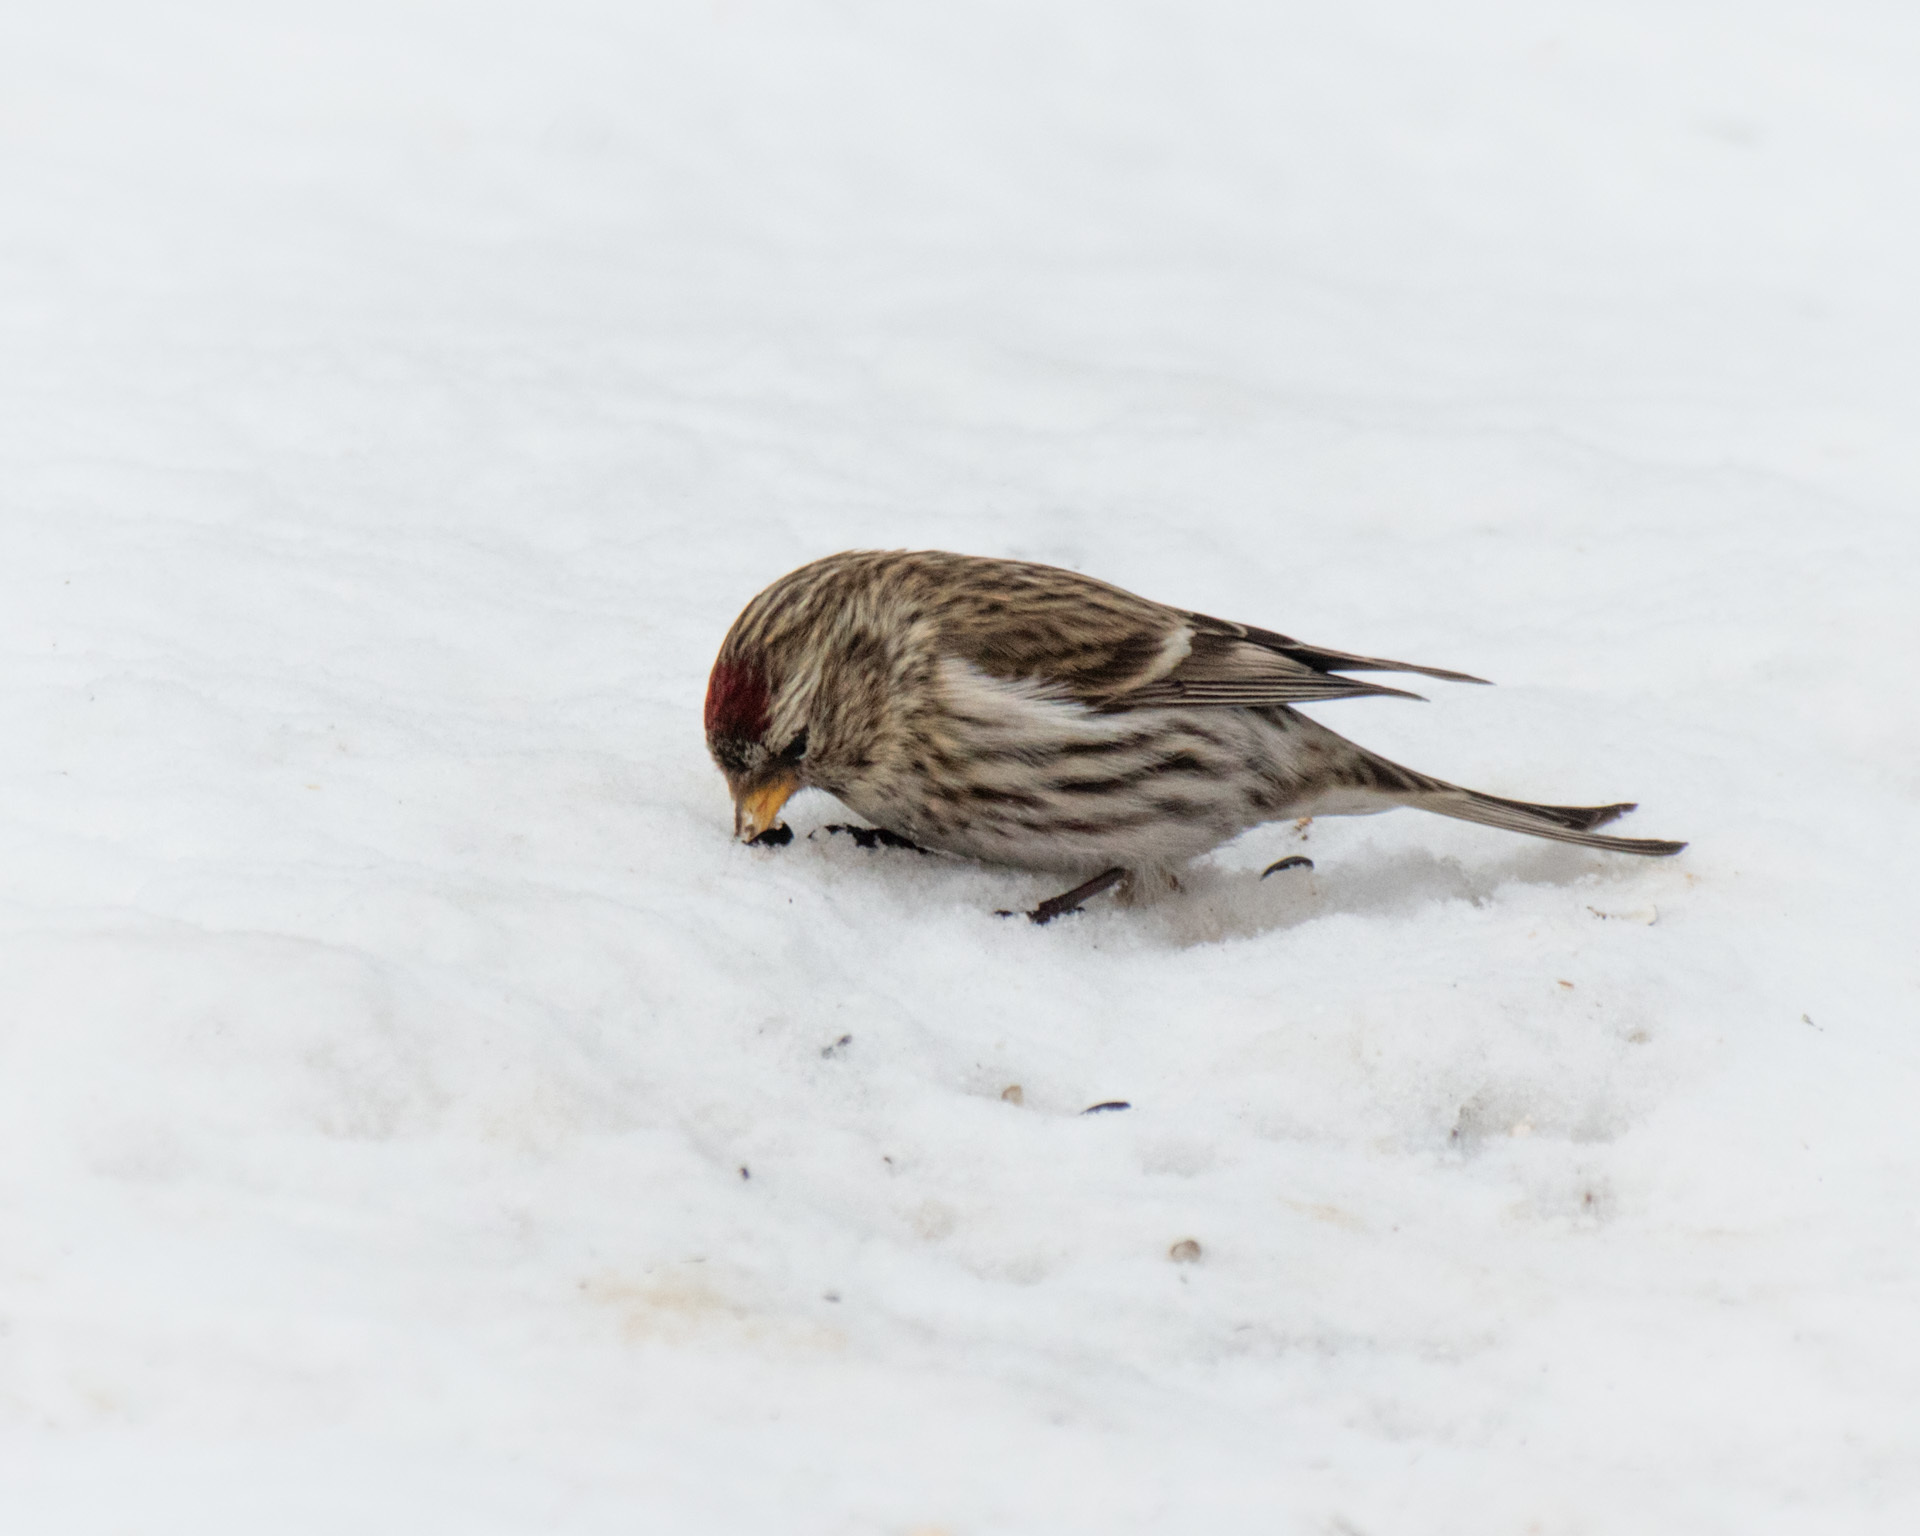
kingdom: Animalia
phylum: Chordata
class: Aves
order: Passeriformes
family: Fringillidae
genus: Acanthis
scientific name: Acanthis flammea
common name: Common redpoll
